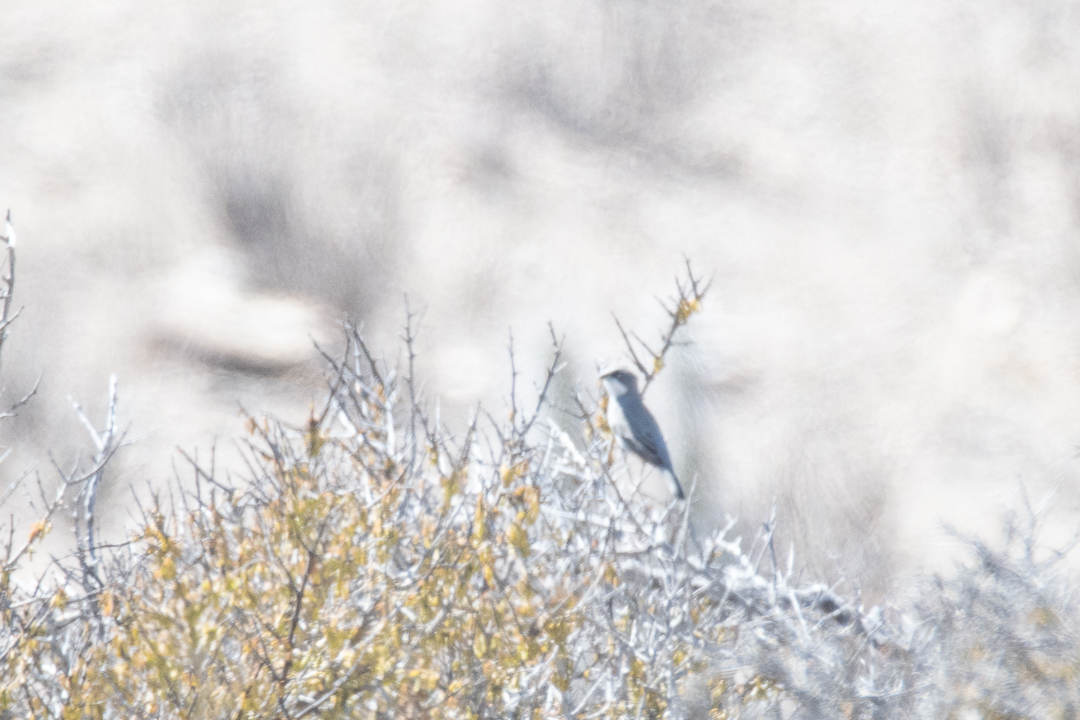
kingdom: Animalia
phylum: Chordata
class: Aves
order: Passeriformes
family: Thraupidae
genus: Diuca
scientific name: Diuca diuca
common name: Common diuca finch
